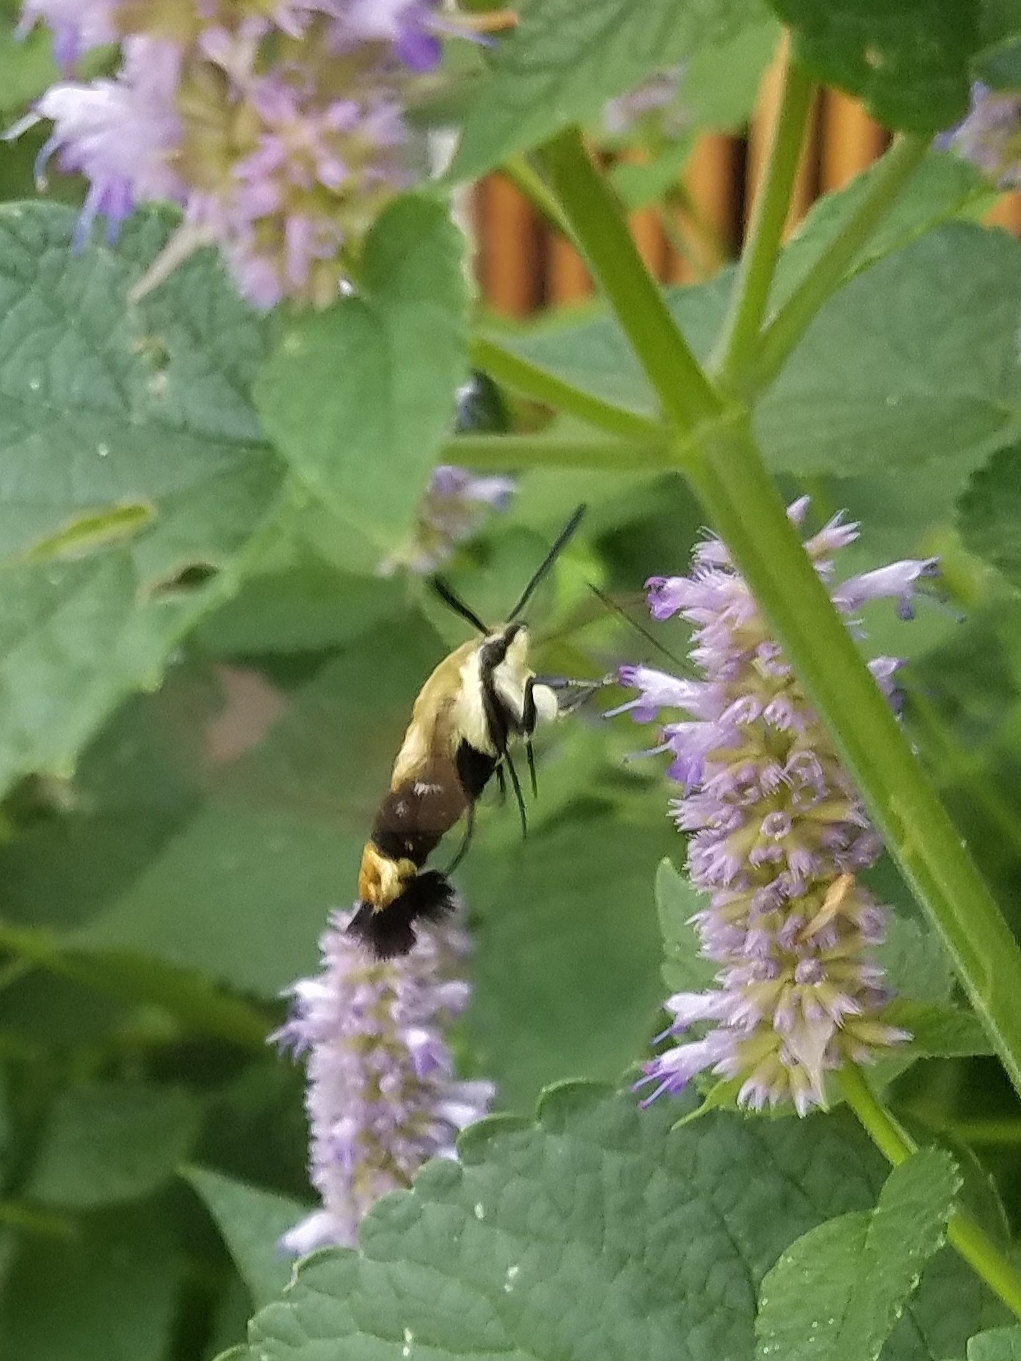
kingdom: Animalia
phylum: Arthropoda
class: Insecta
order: Lepidoptera
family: Sphingidae
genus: Hemaris
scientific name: Hemaris diffinis
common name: Bumblebee moth
